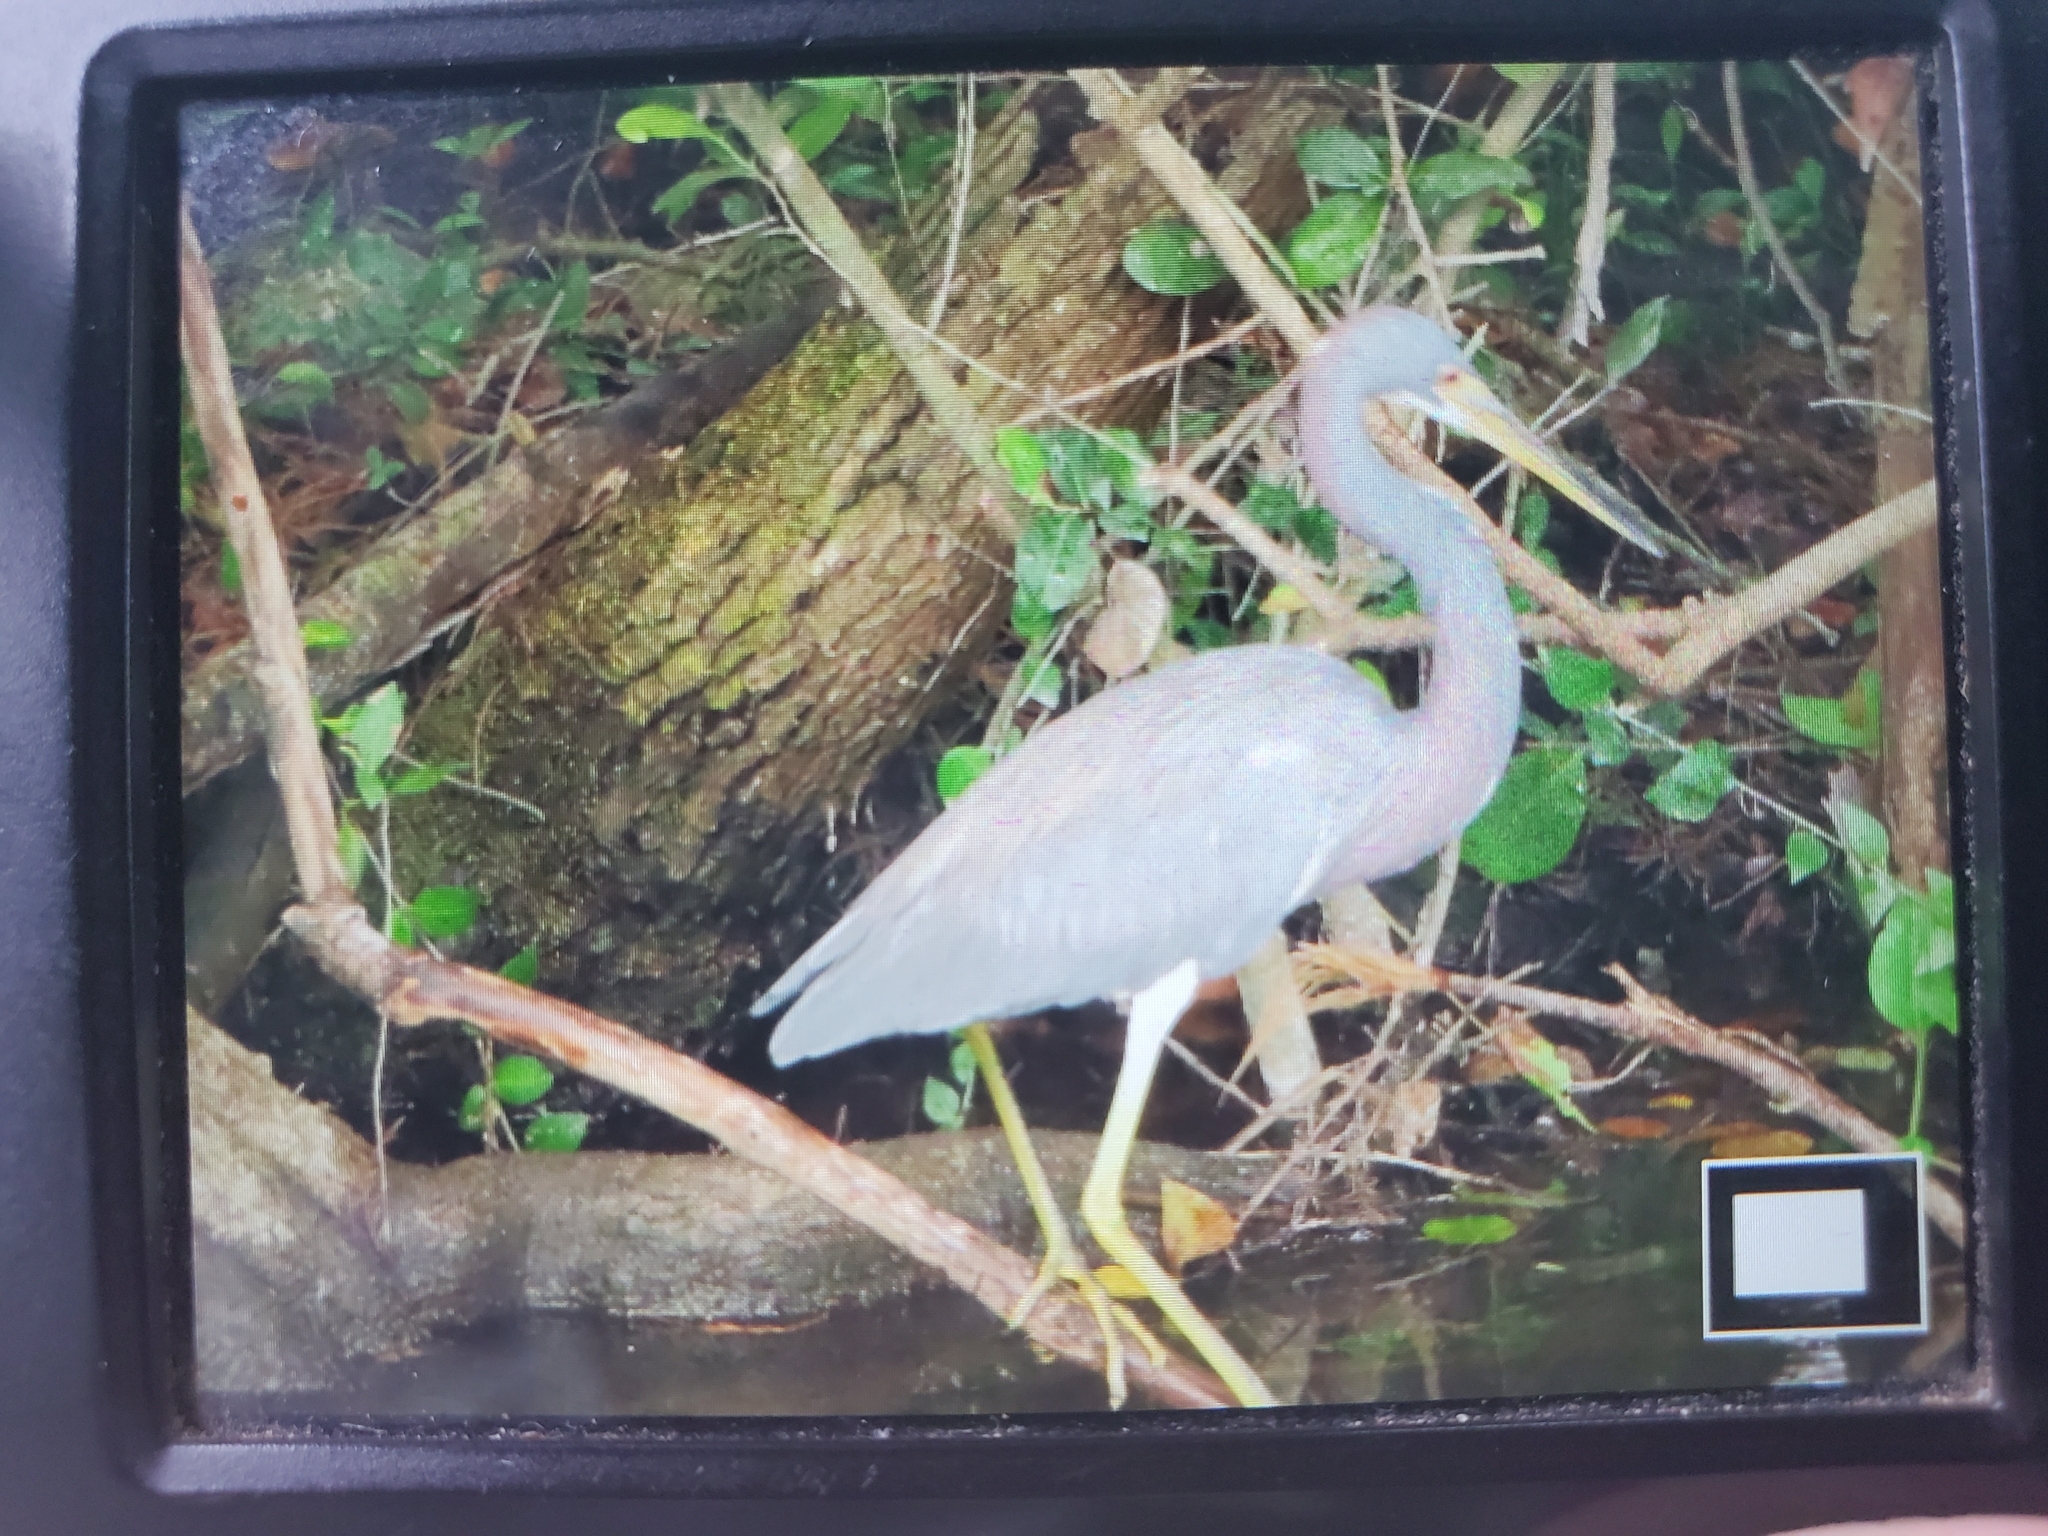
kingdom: Animalia
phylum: Chordata
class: Aves
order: Pelecaniformes
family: Ardeidae
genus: Egretta
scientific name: Egretta tricolor
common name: Tricolored heron
